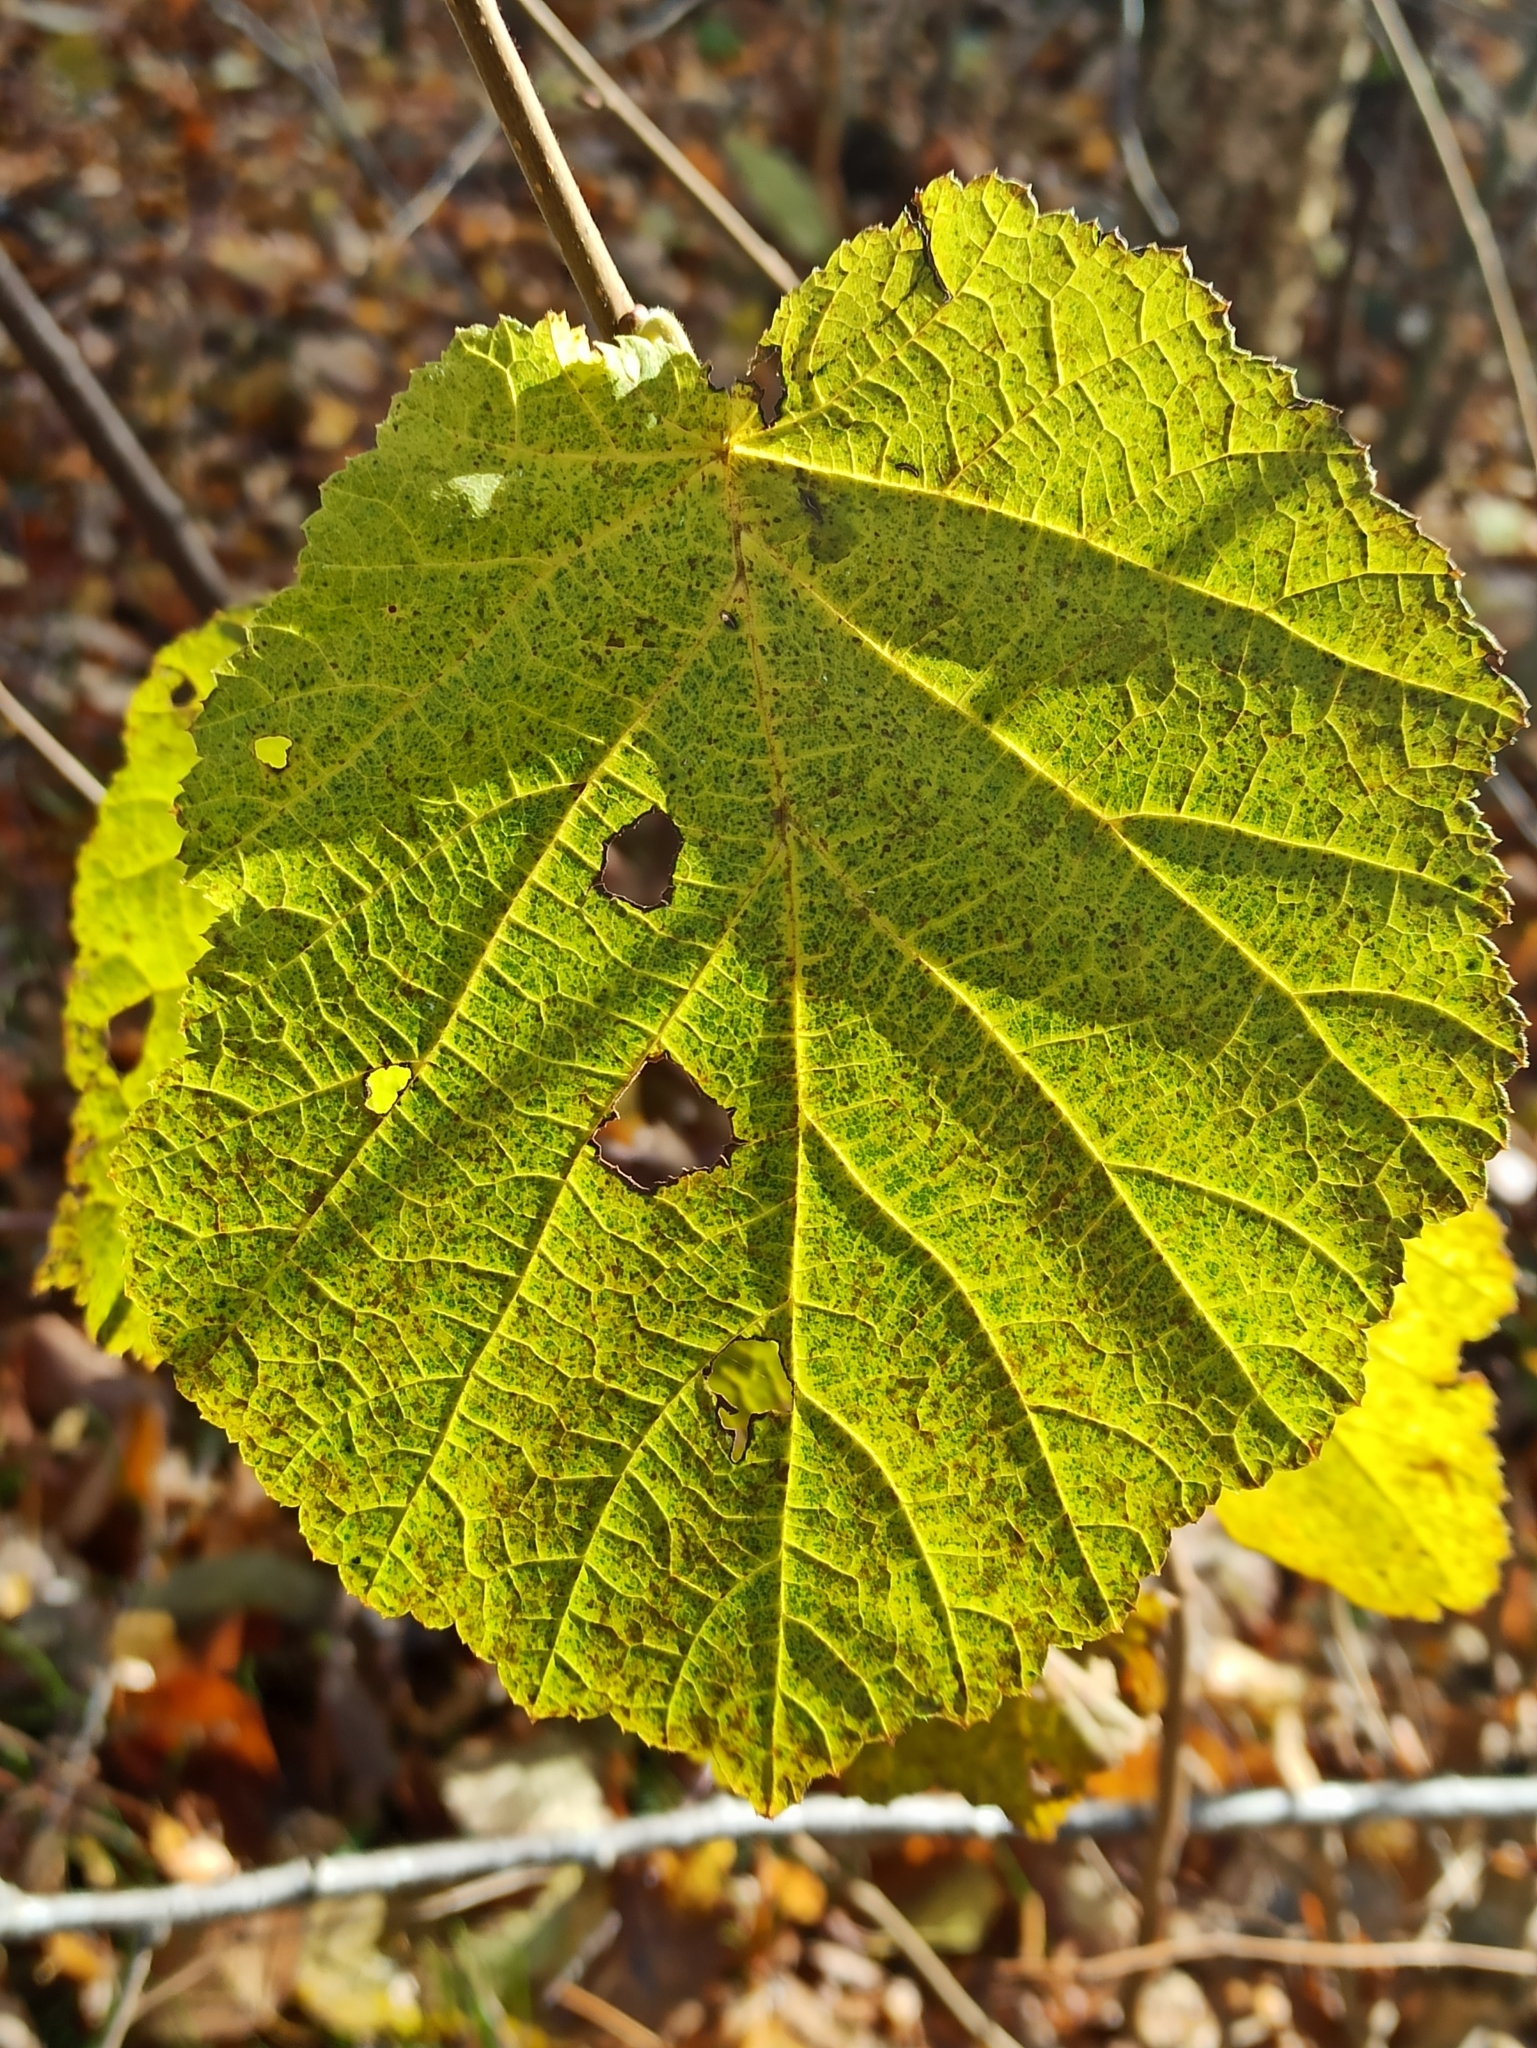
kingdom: Plantae
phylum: Tracheophyta
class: Magnoliopsida
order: Fagales
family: Betulaceae
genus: Corylus
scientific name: Corylus avellana
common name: European hazel
